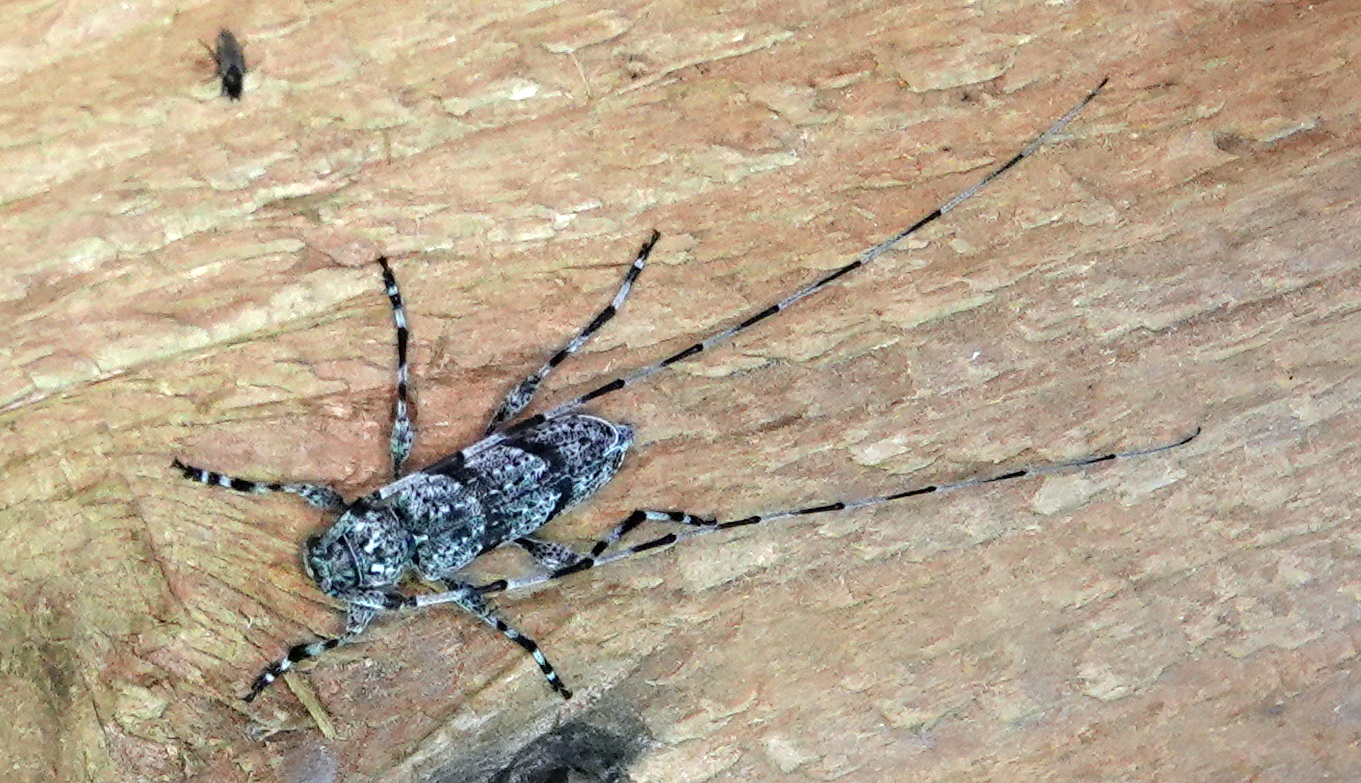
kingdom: Animalia
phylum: Arthropoda
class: Insecta
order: Coleoptera
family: Cerambycidae
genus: Acanthocinus
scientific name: Acanthocinus obliquus
